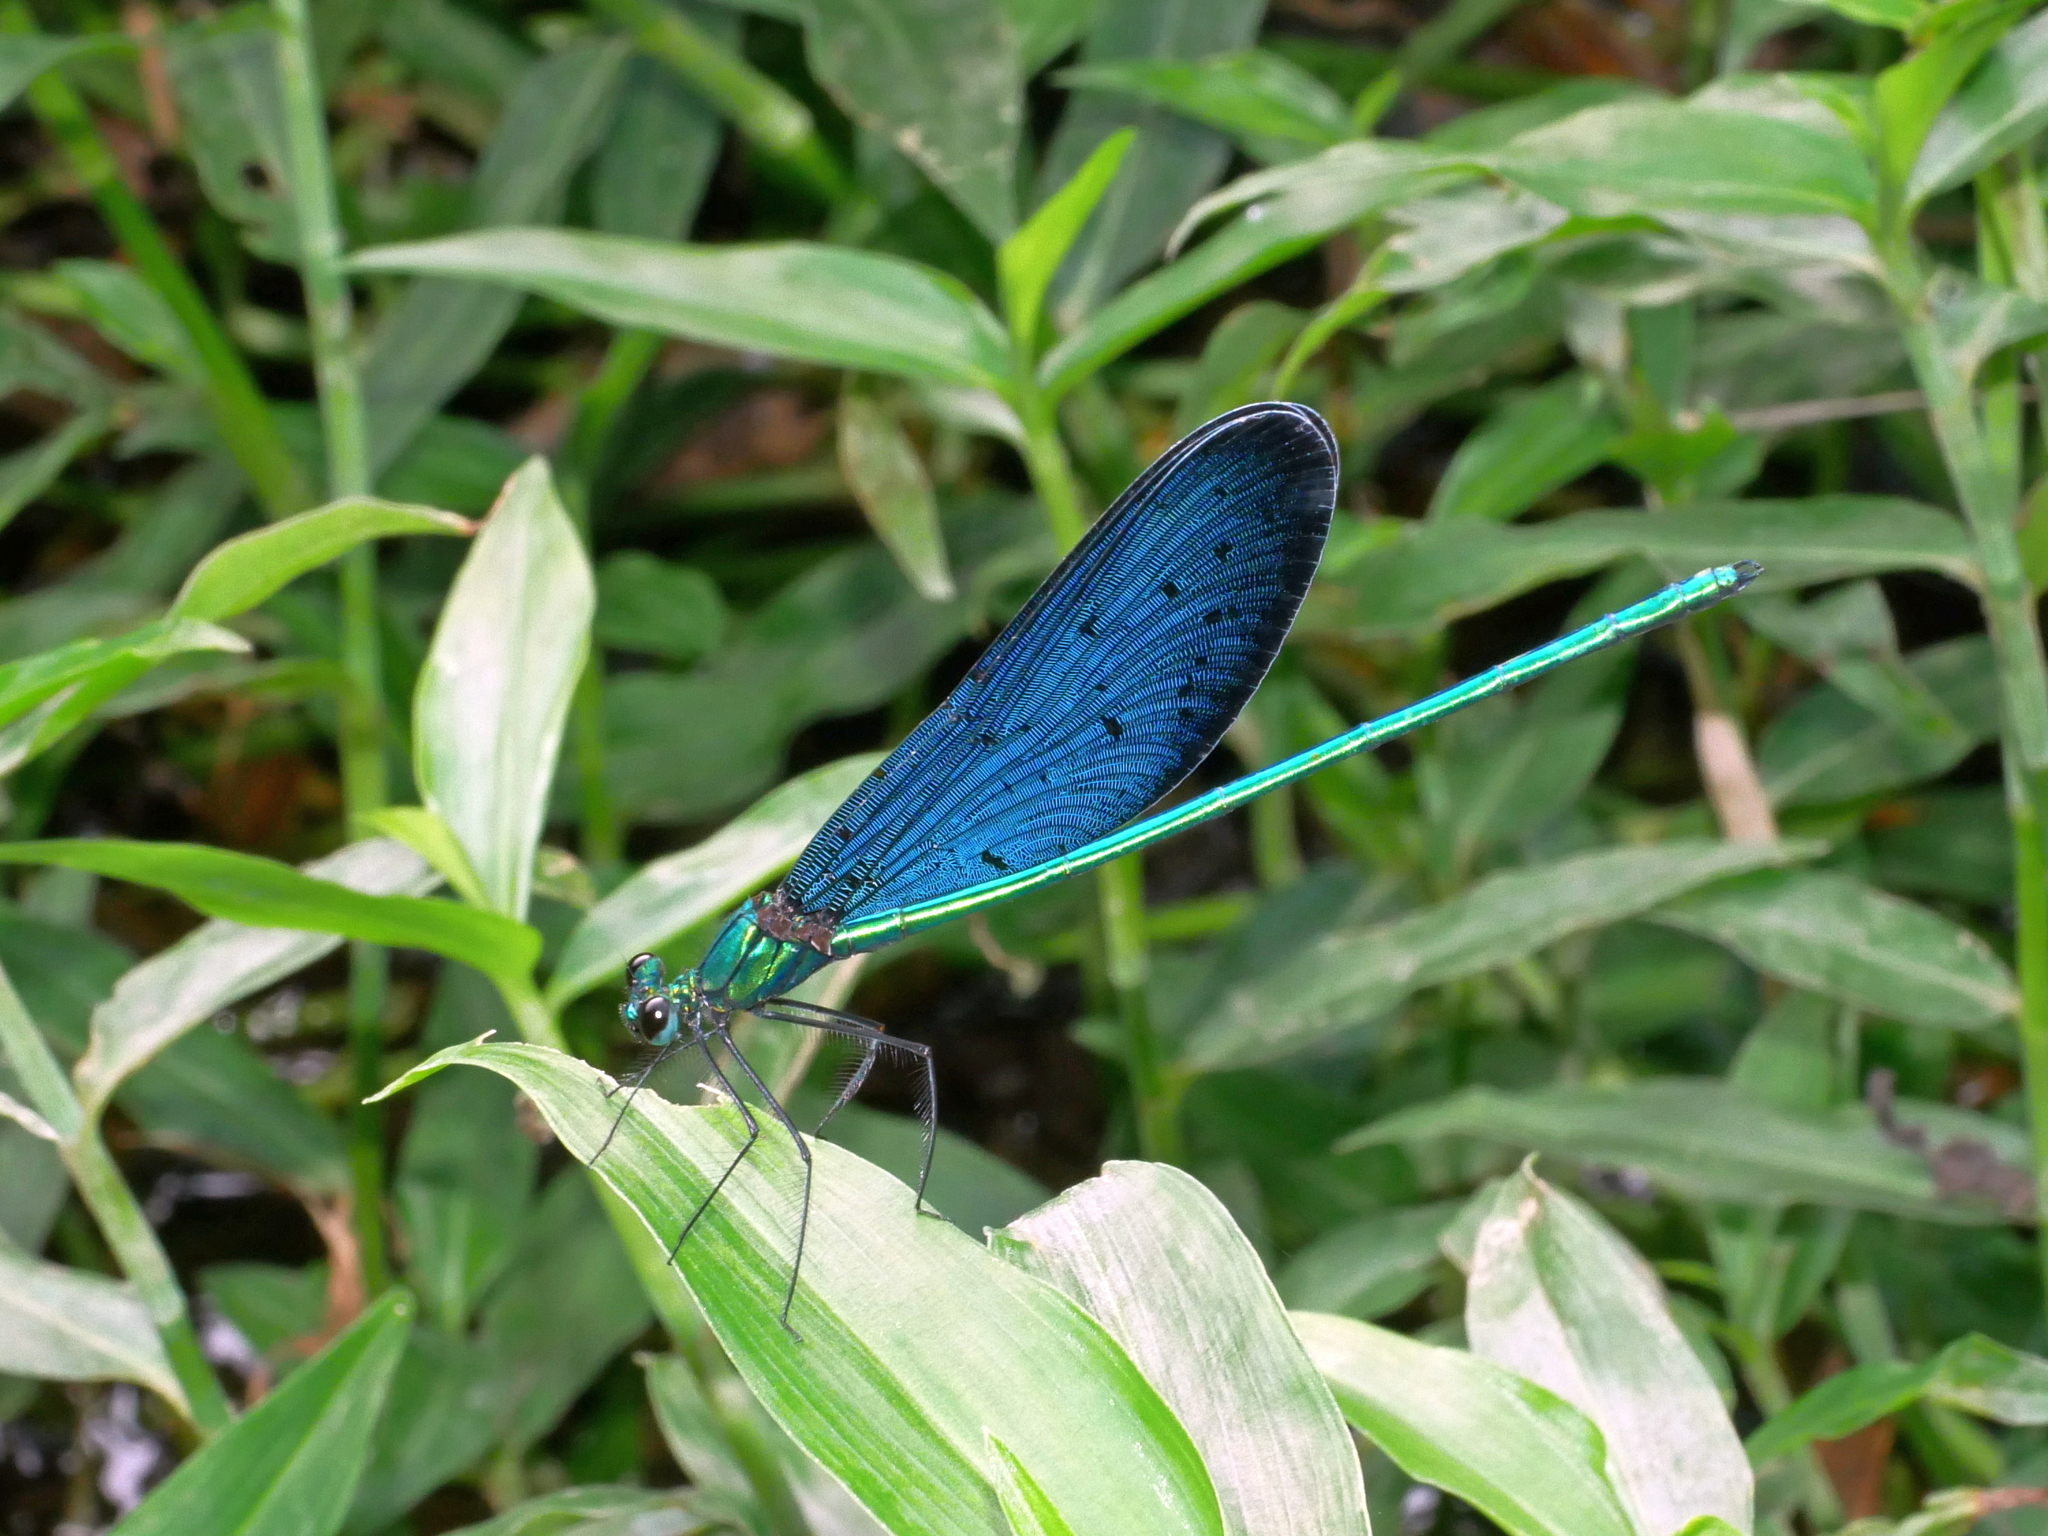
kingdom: Animalia
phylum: Arthropoda
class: Insecta
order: Odonata
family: Calopterygidae
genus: Matrona
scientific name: Matrona cyanoptera
